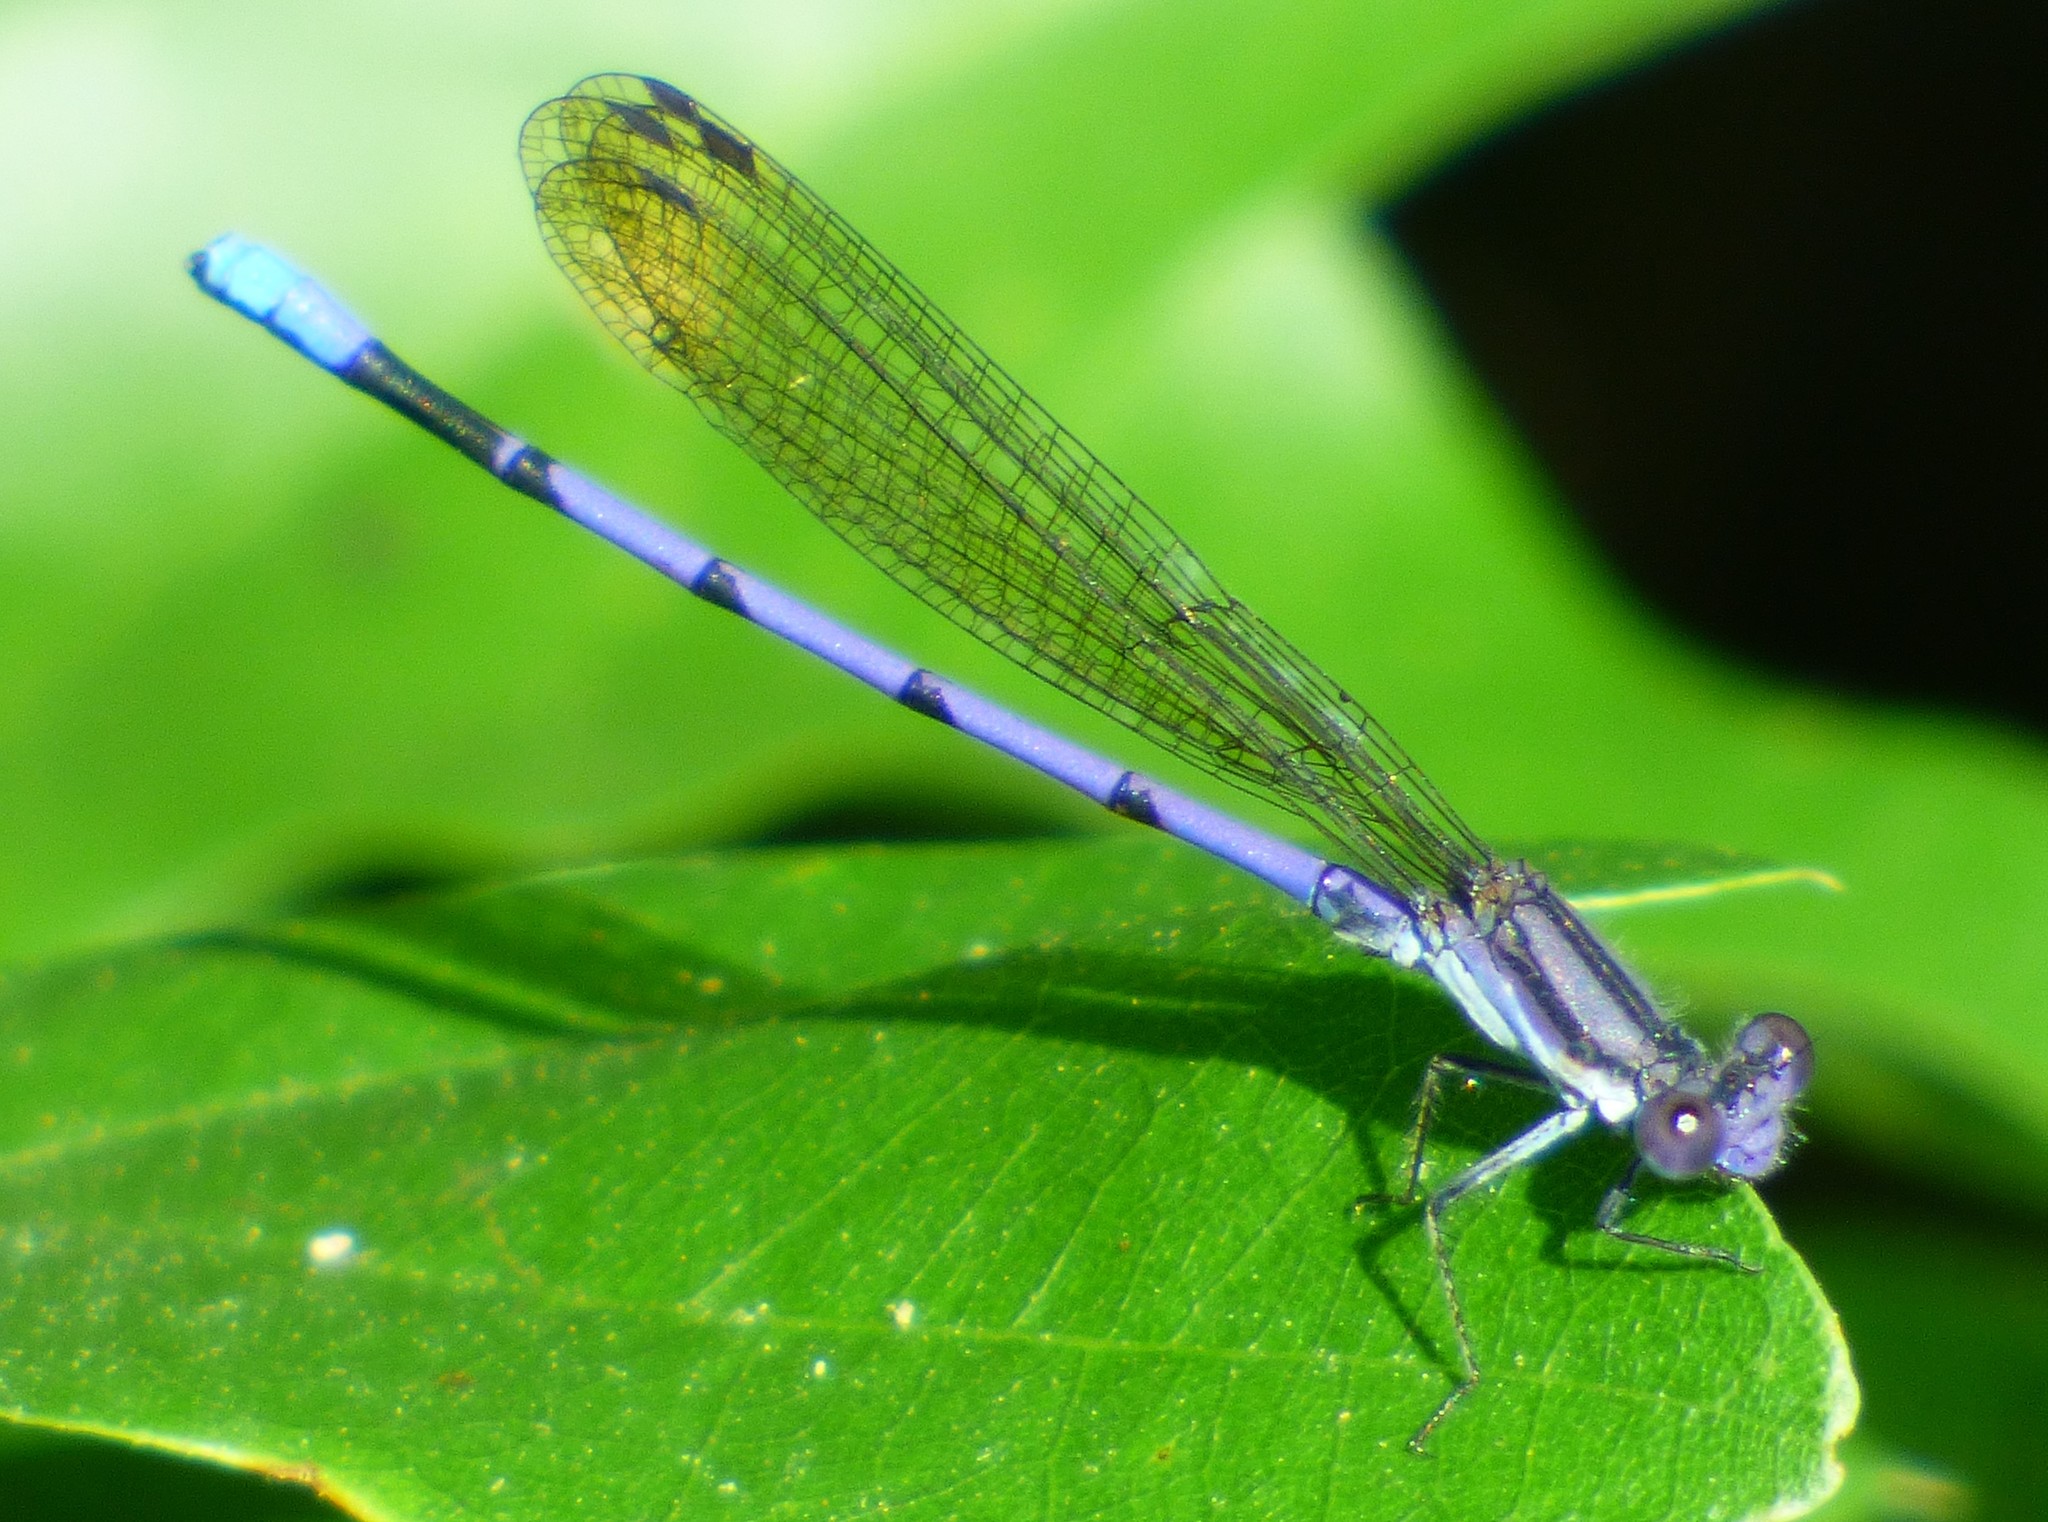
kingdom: Animalia
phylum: Arthropoda
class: Insecta
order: Odonata
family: Coenagrionidae
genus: Argia
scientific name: Argia fumipennis
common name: Variable dancer
